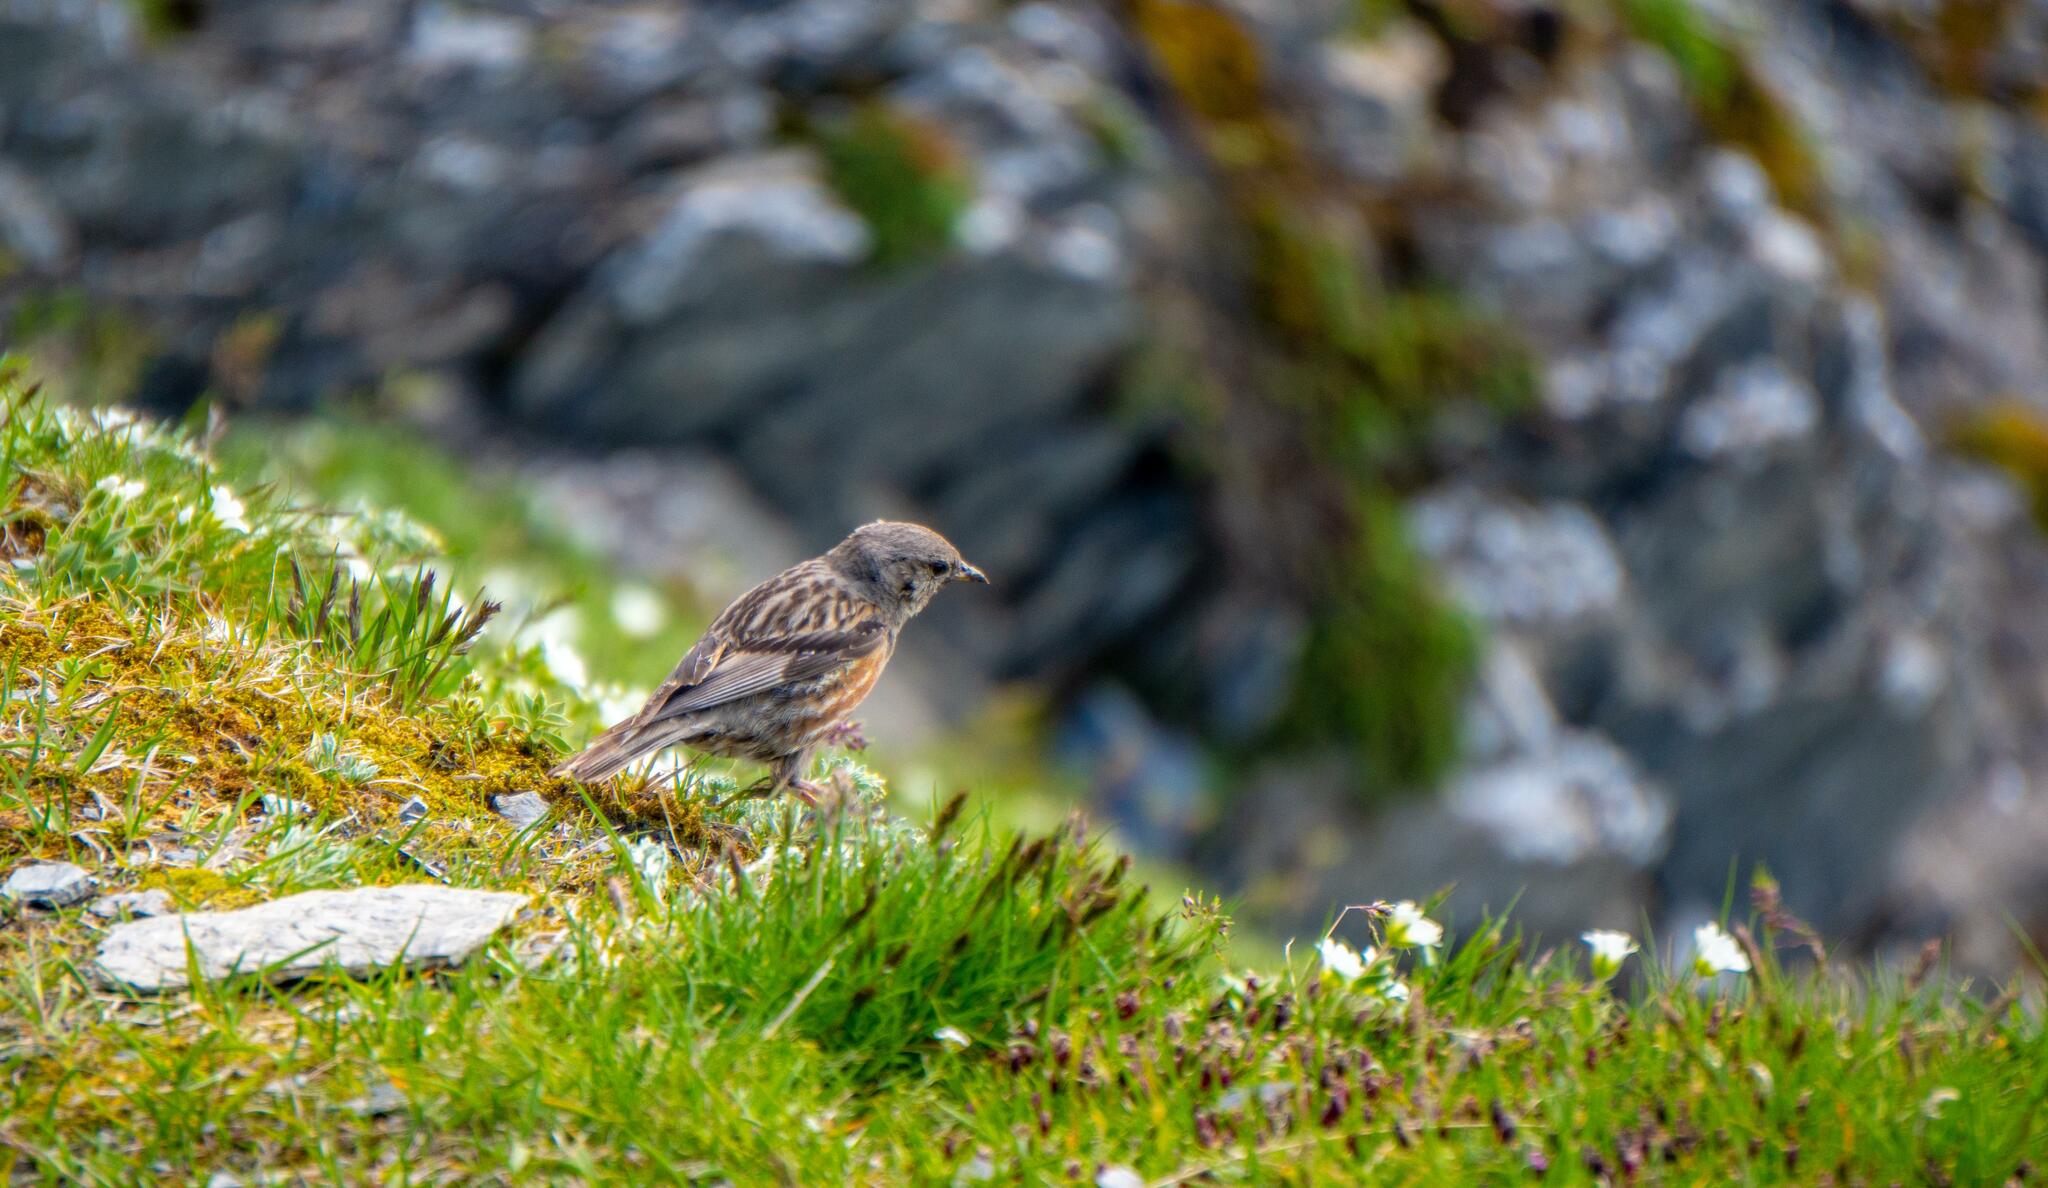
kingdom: Animalia
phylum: Chordata
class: Aves
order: Passeriformes
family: Prunellidae
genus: Prunella
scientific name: Prunella collaris
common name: Alpine accentor
